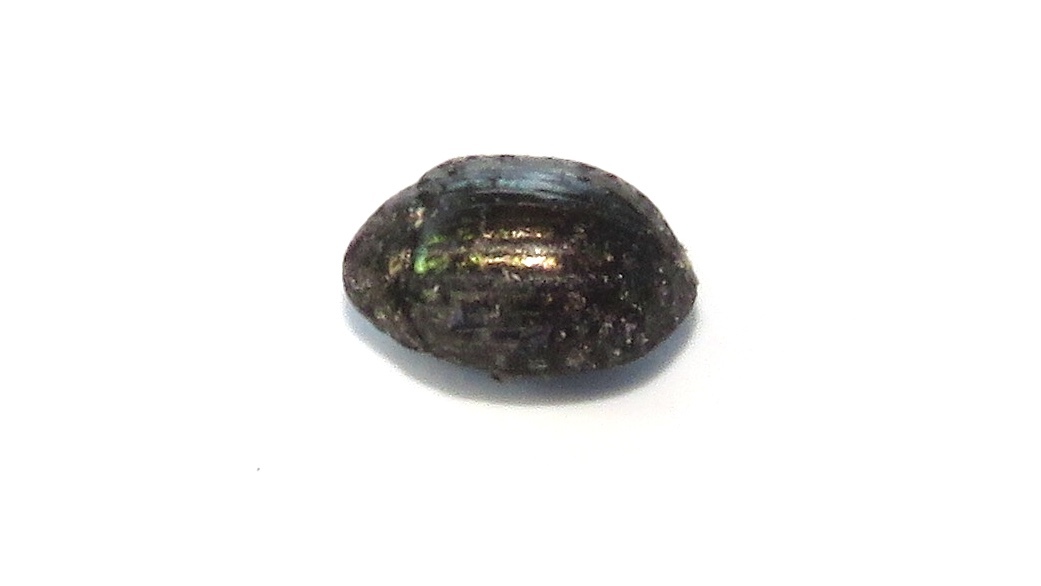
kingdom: Animalia
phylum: Arthropoda
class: Insecta
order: Coleoptera
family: Byrrhidae
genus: Cytilus
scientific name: Cytilus alternatus
